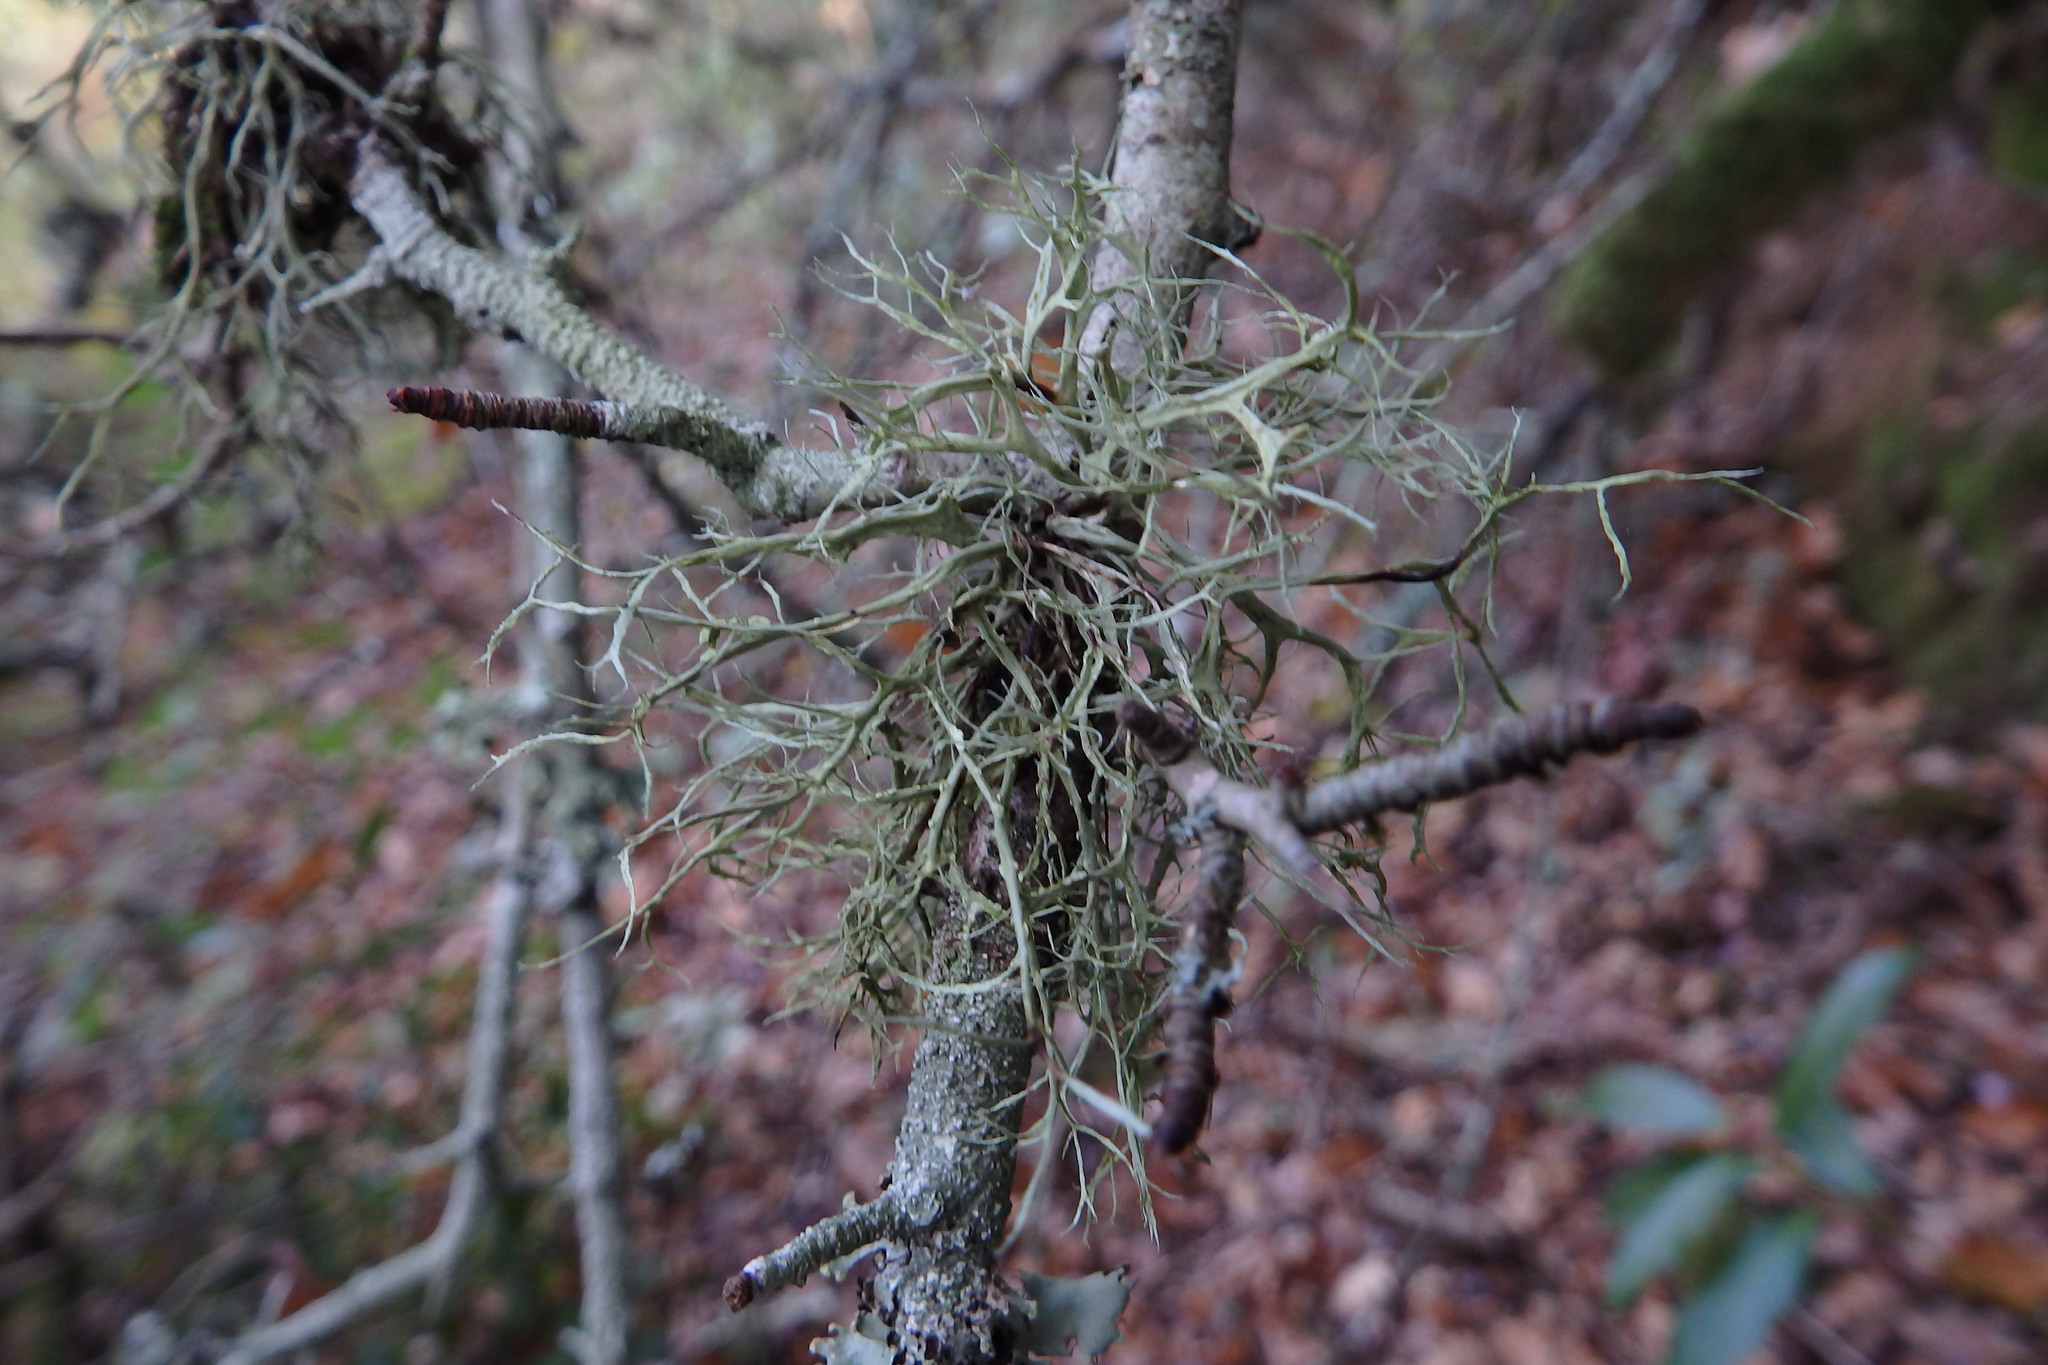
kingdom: Fungi
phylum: Ascomycota
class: Lecanoromycetes
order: Lecanorales
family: Ramalinaceae
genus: Ramalina
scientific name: Ramalina farinacea
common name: Farinose cartilage lichen
